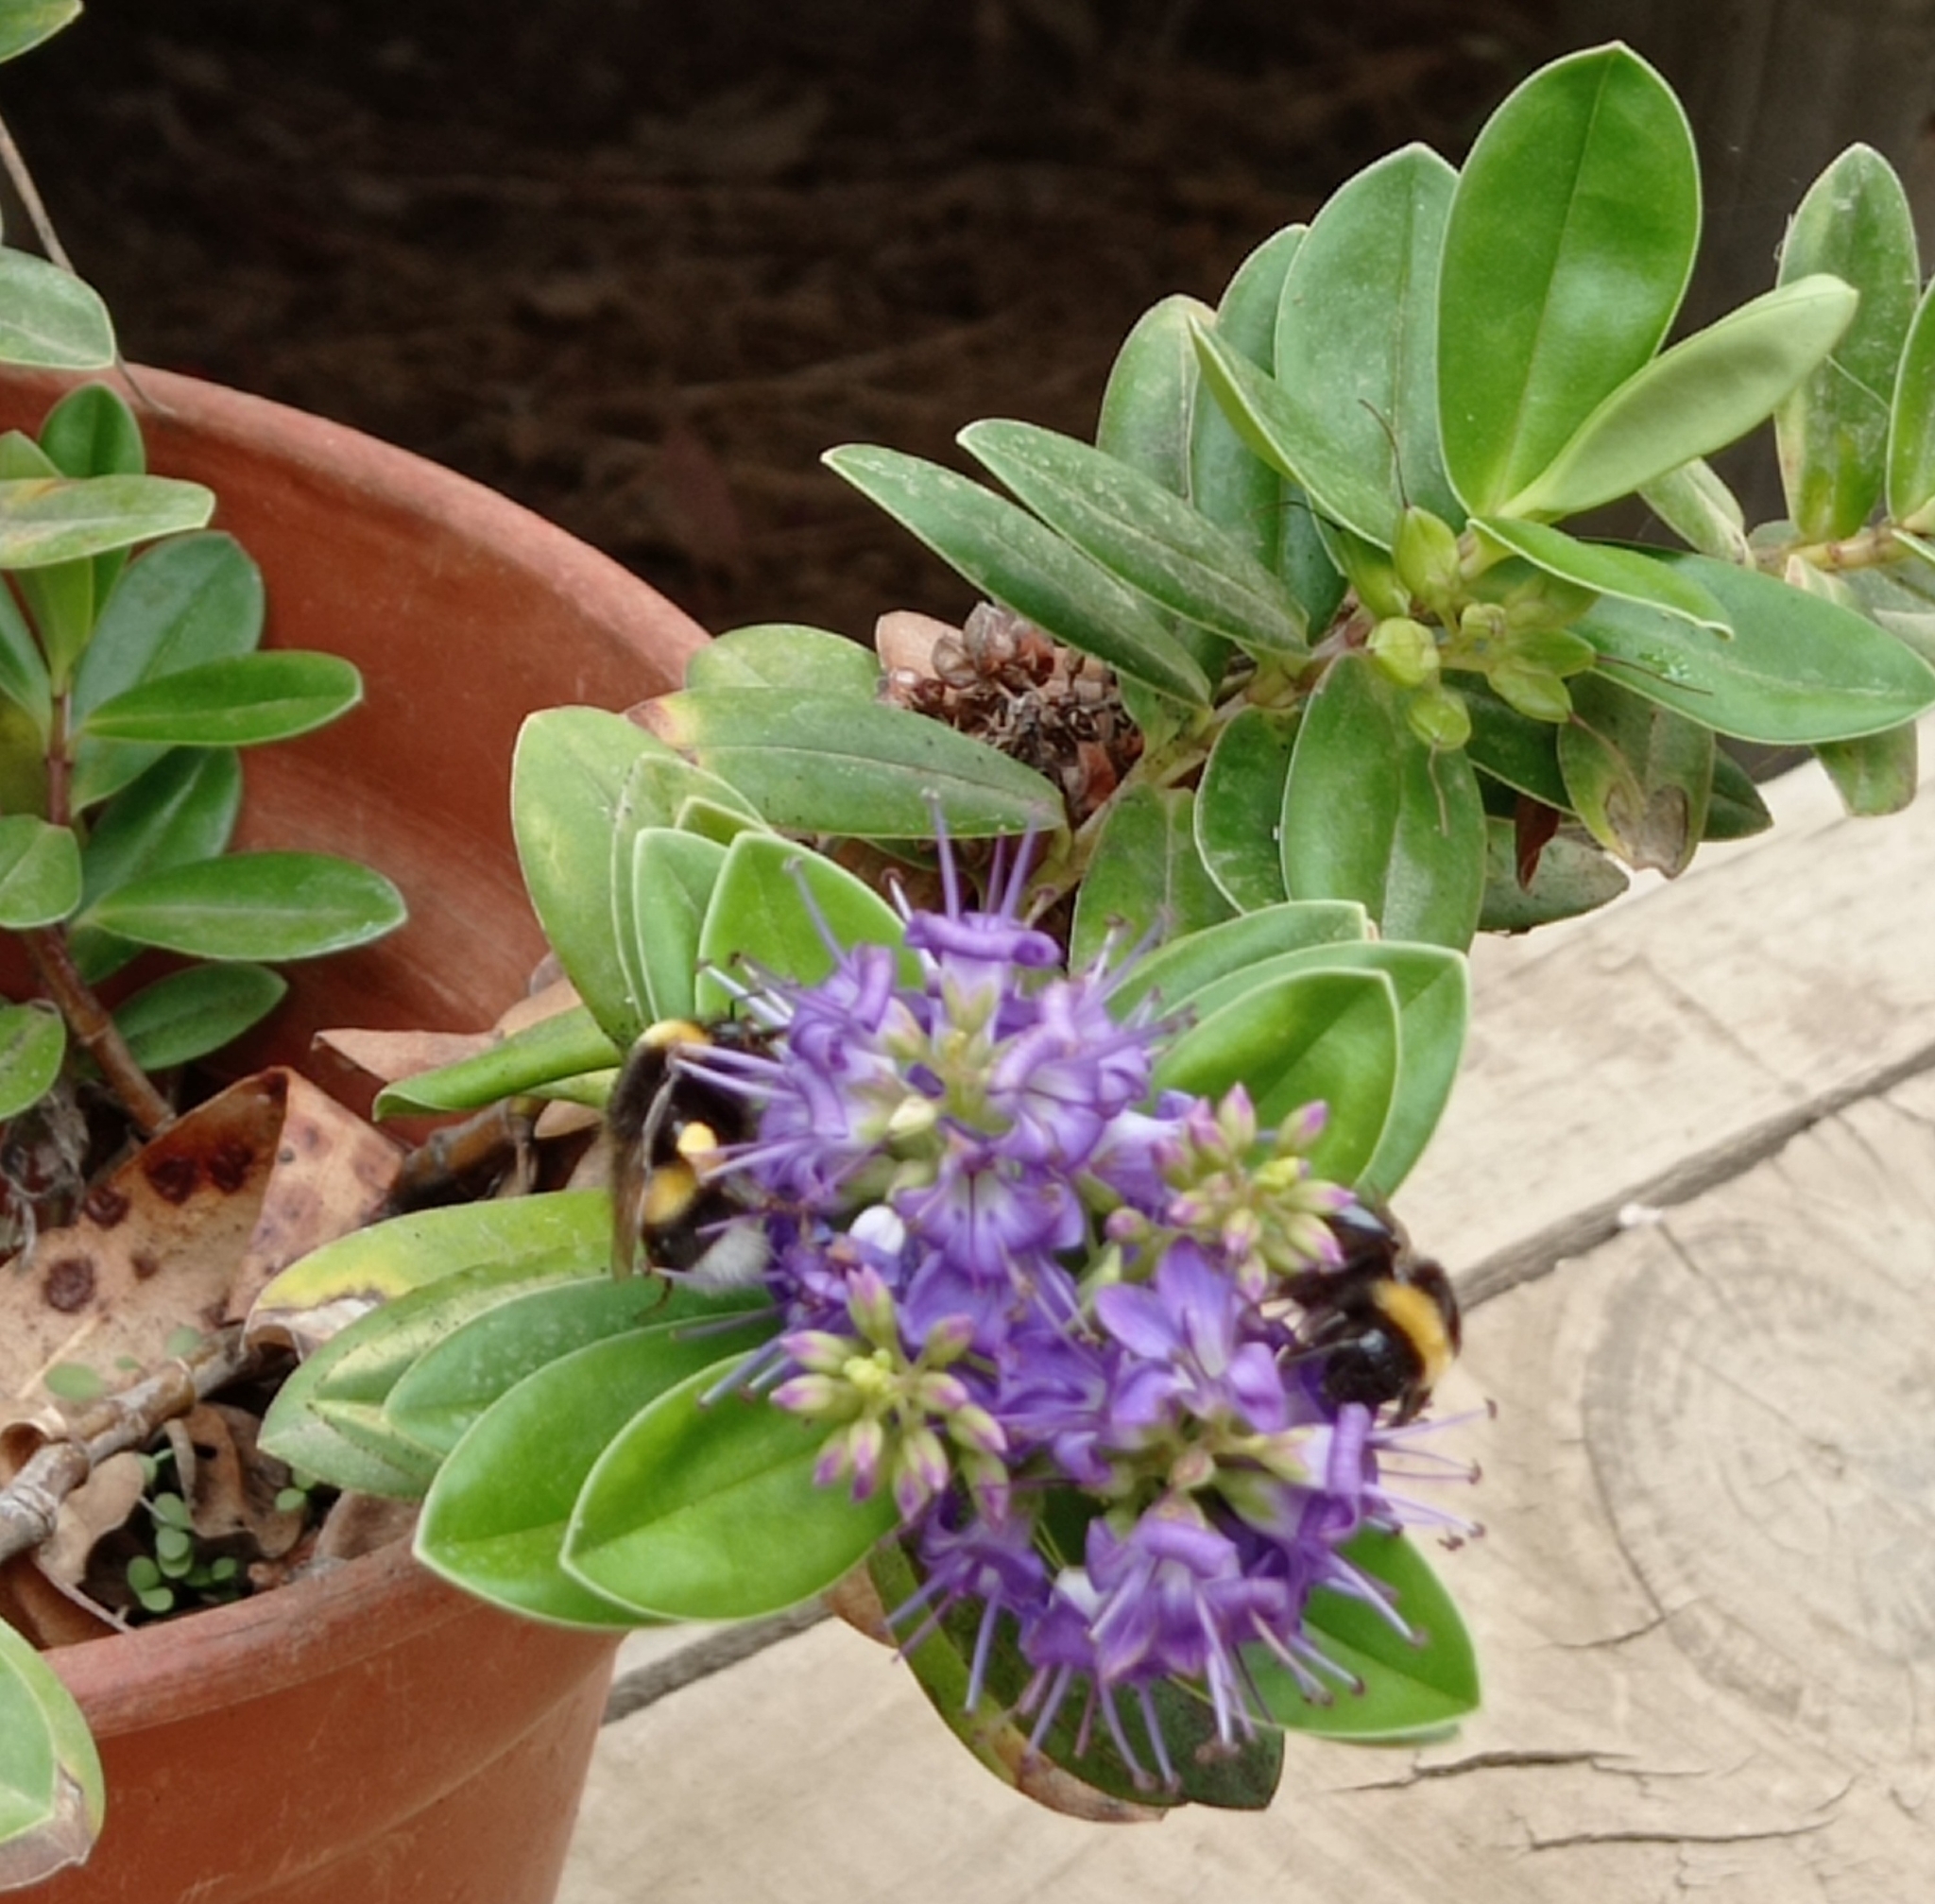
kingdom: Animalia
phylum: Arthropoda
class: Insecta
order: Hymenoptera
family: Apidae
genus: Bombus
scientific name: Bombus terrestris
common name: Buff-tailed bumblebee
